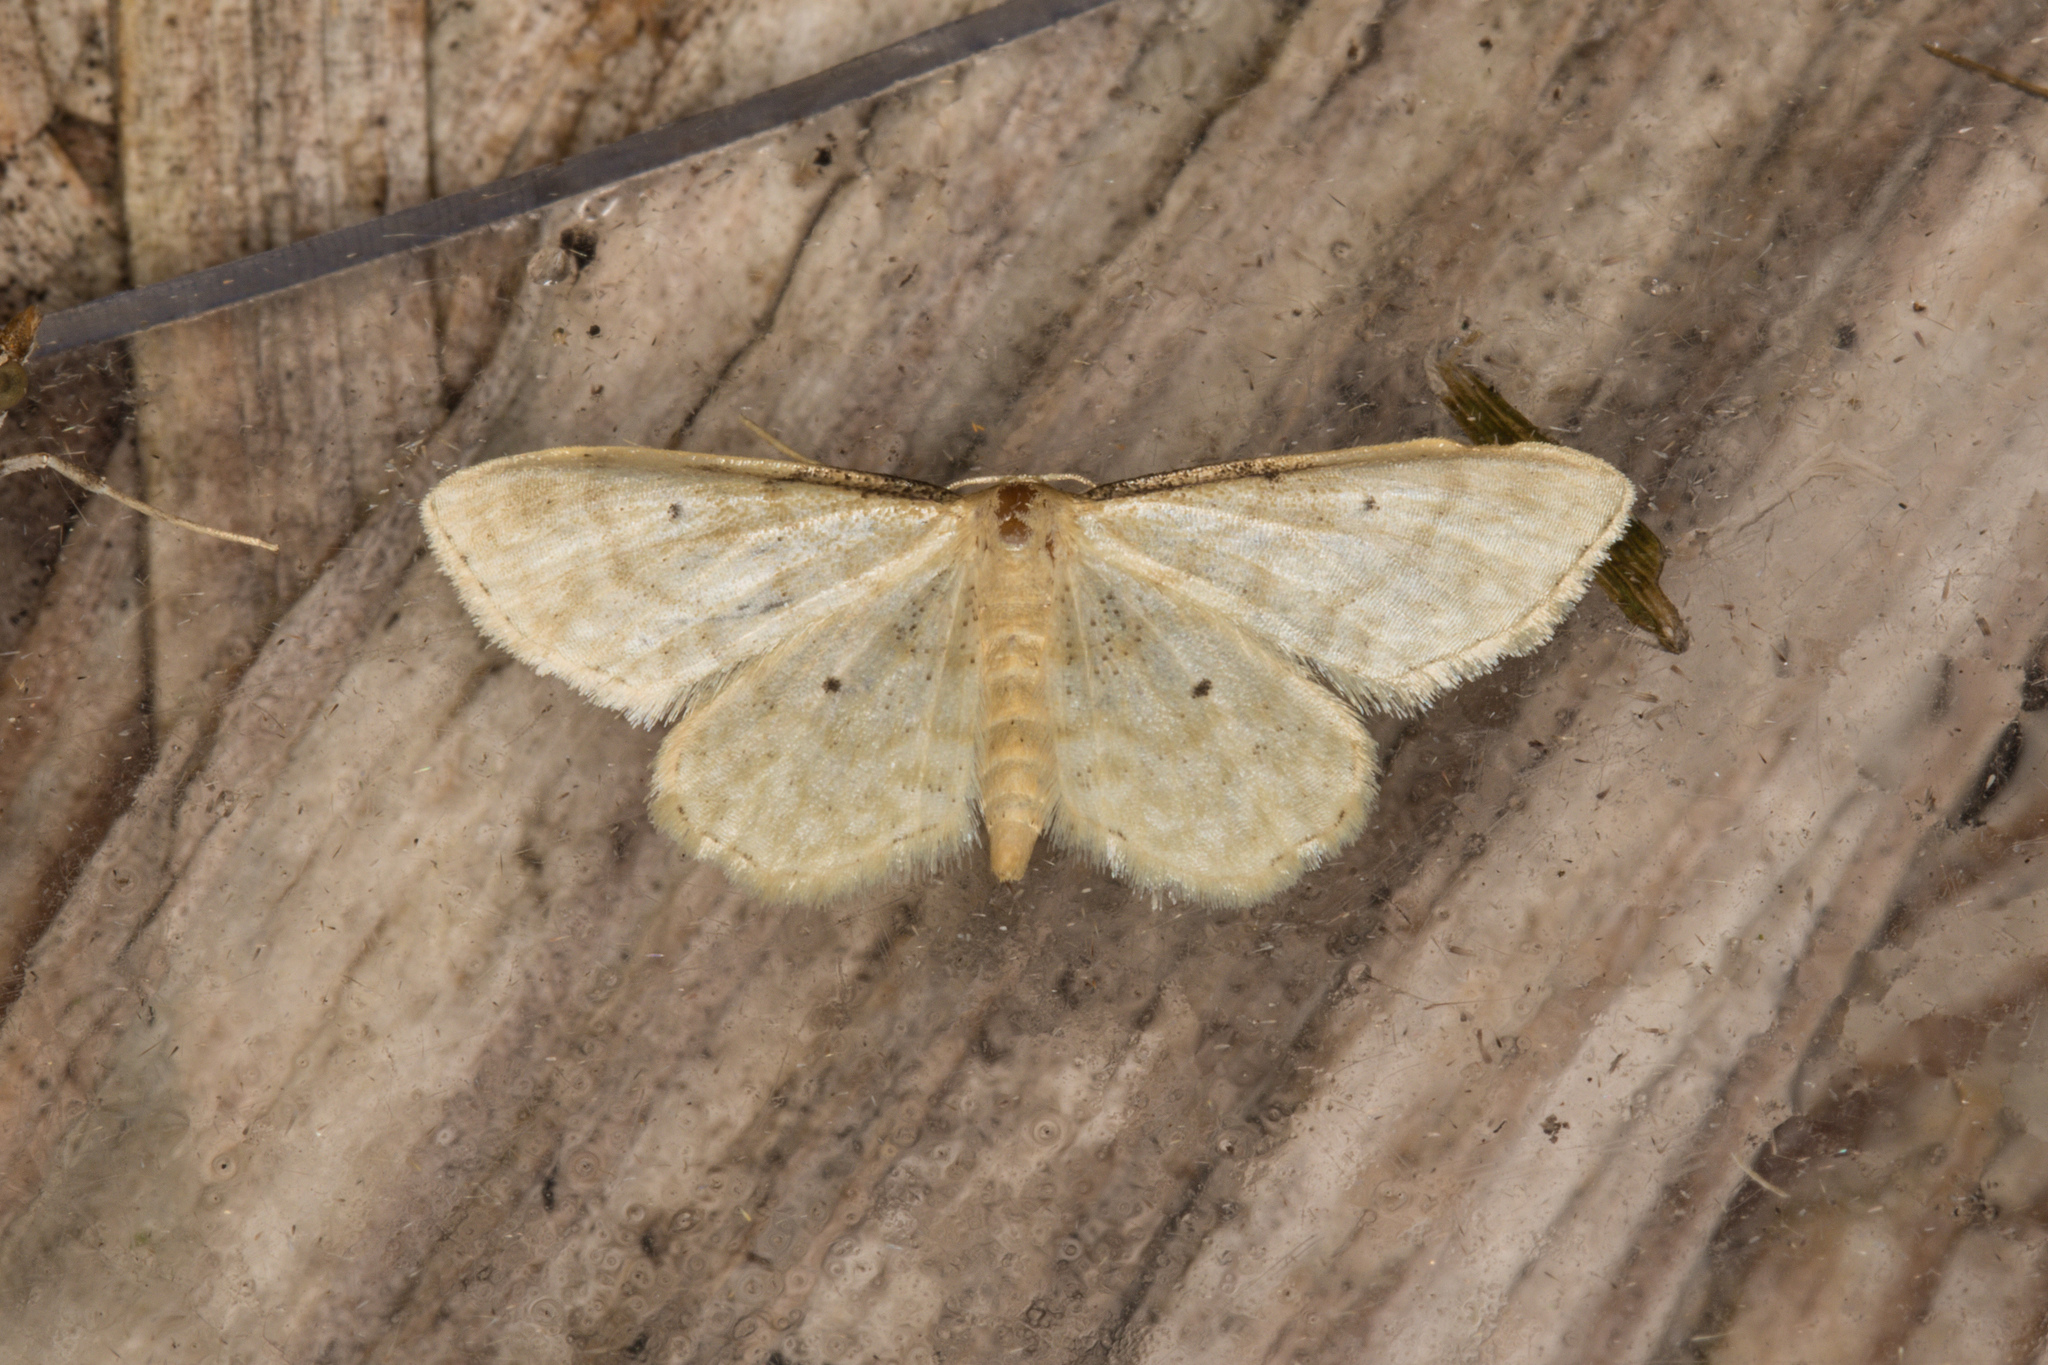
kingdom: Animalia
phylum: Arthropoda
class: Insecta
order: Lepidoptera
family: Geometridae
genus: Idaea
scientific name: Idaea fuscovenosa
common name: Dwarf cream wave
